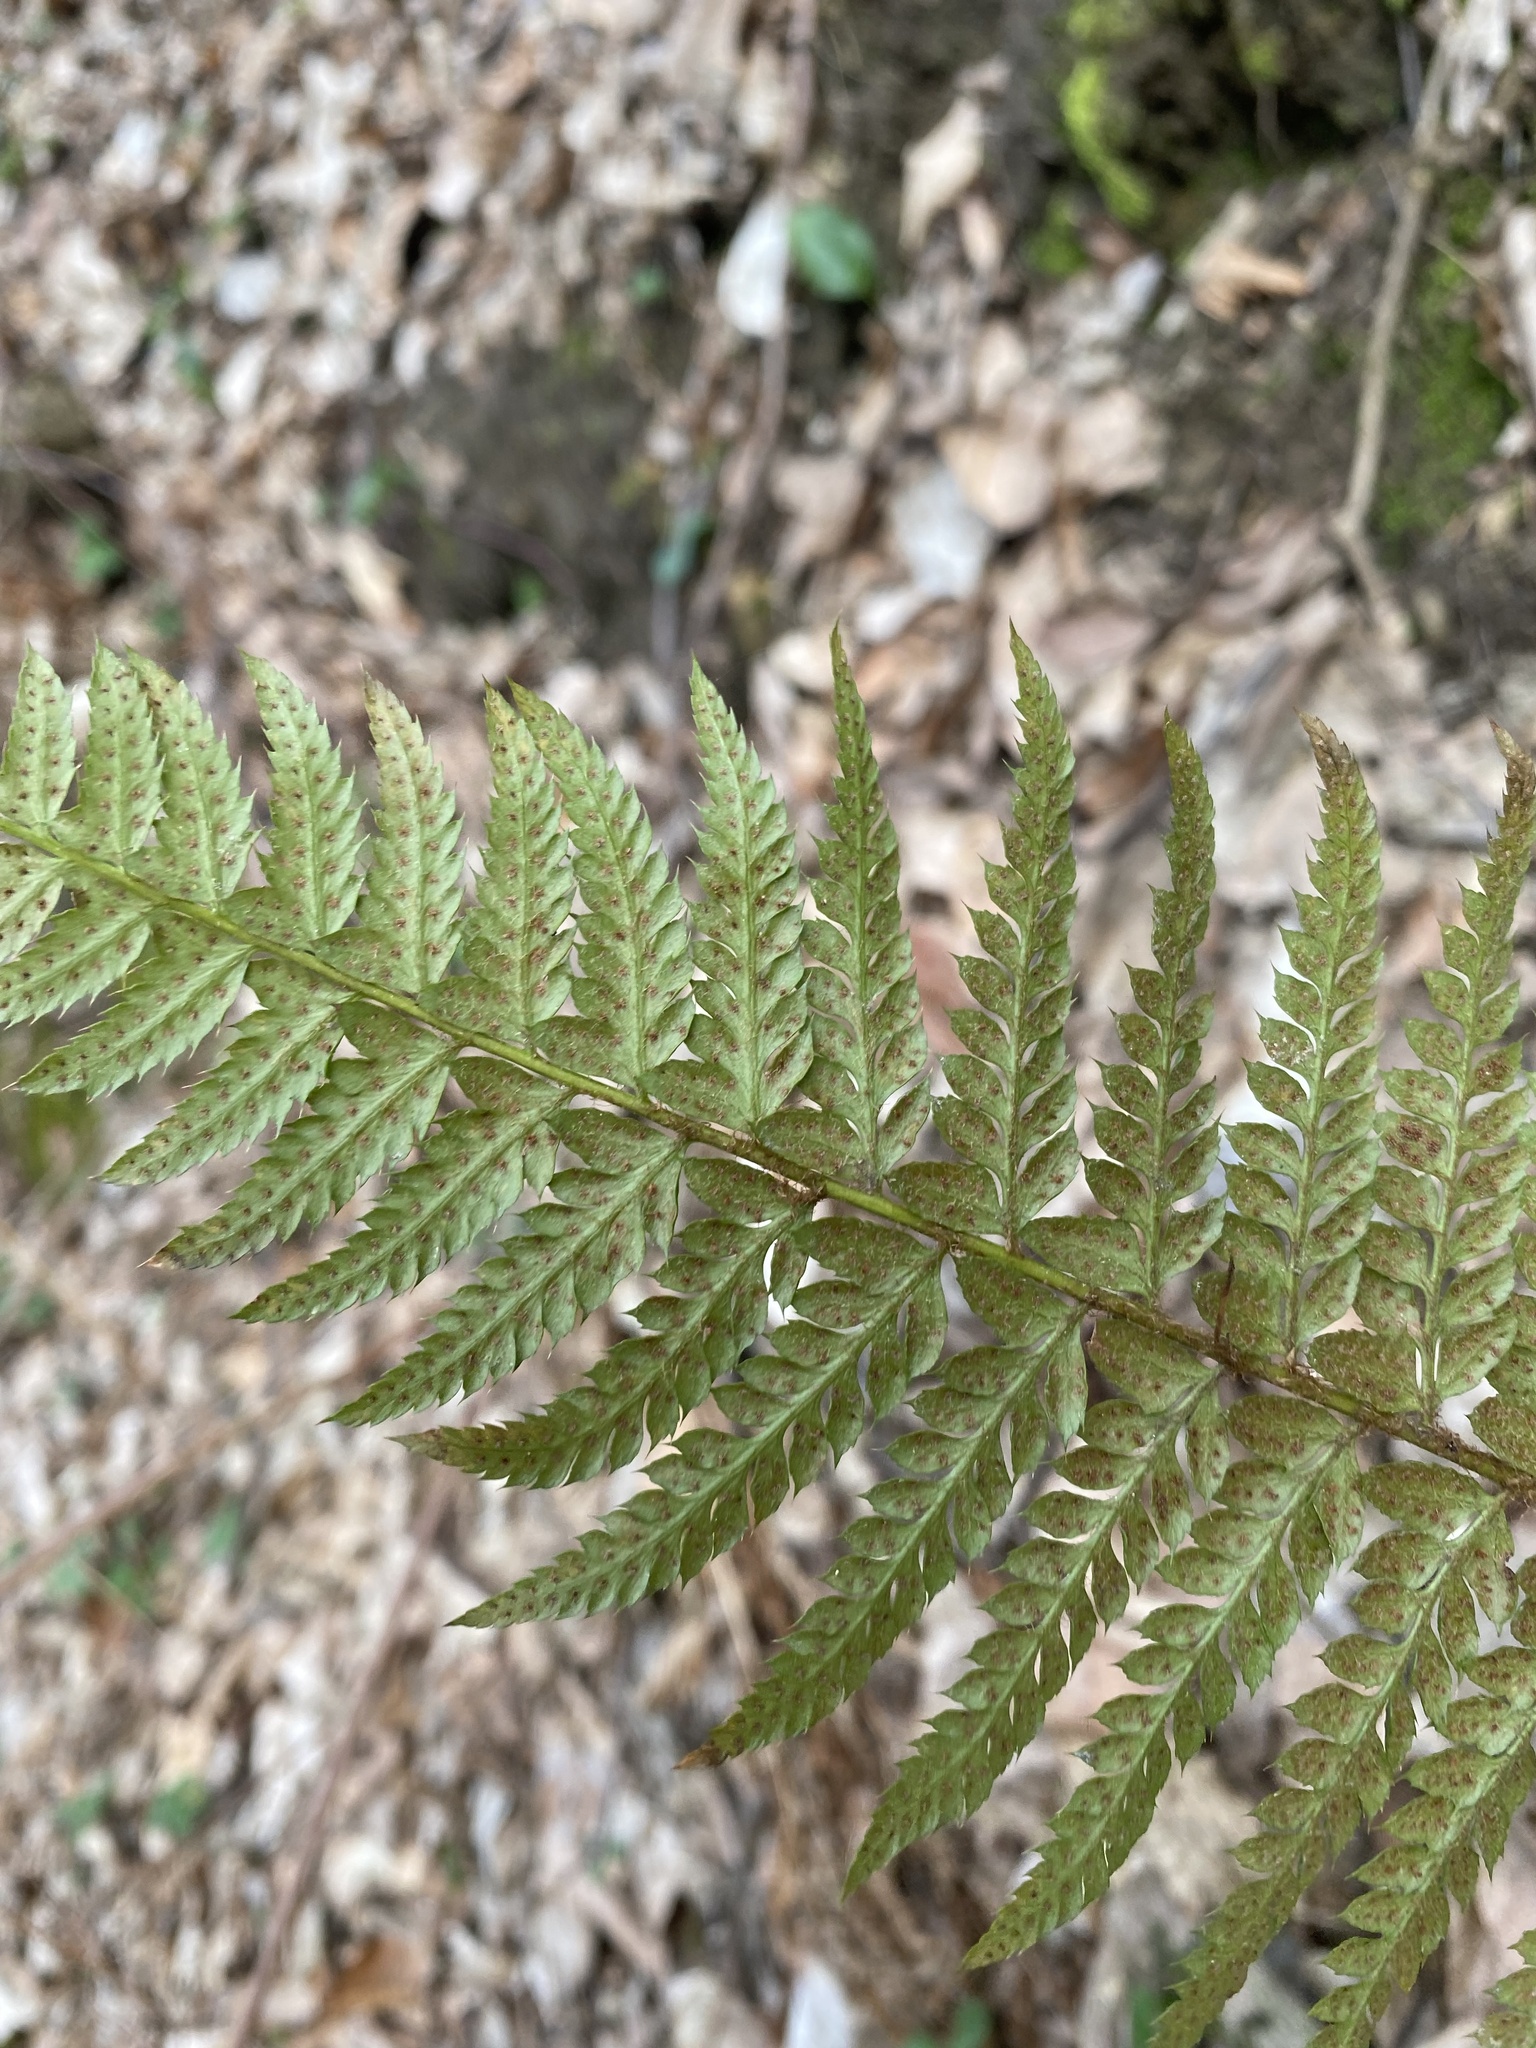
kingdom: Plantae
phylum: Tracheophyta
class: Polypodiopsida
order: Polypodiales
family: Dryopteridaceae
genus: Polystichum
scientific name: Polystichum aculeatum
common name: Hard shield-fern
